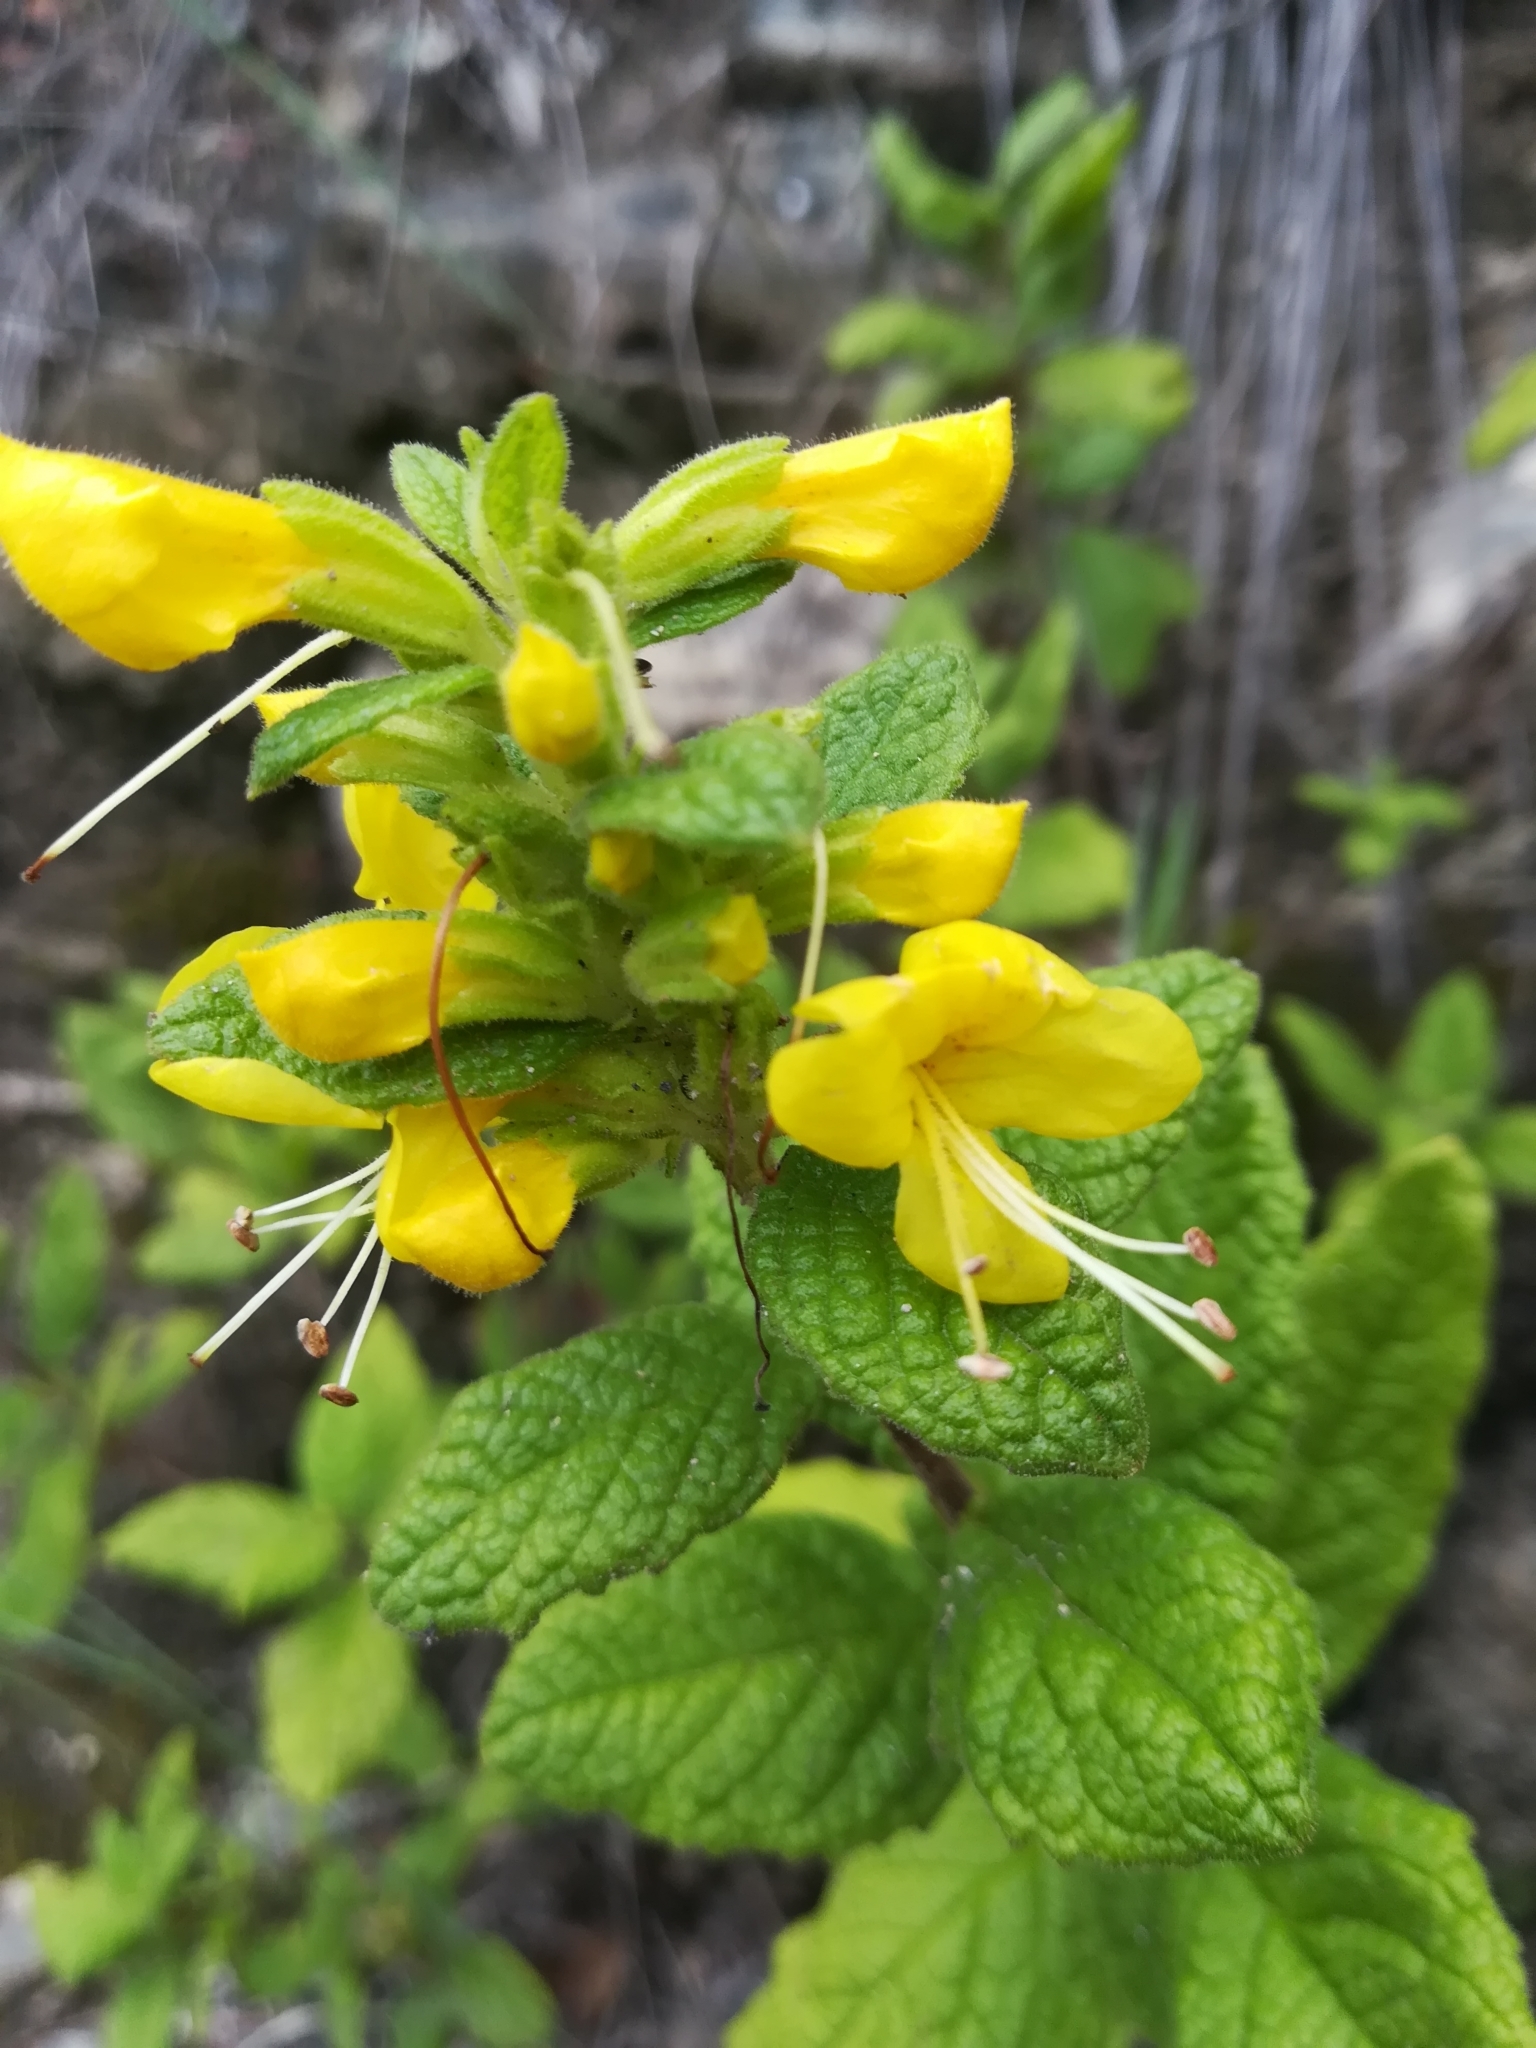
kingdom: Plantae
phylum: Tracheophyta
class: Magnoliopsida
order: Lamiales
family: Phrymaceae
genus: Hemichaena
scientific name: Hemichaena coulteri
